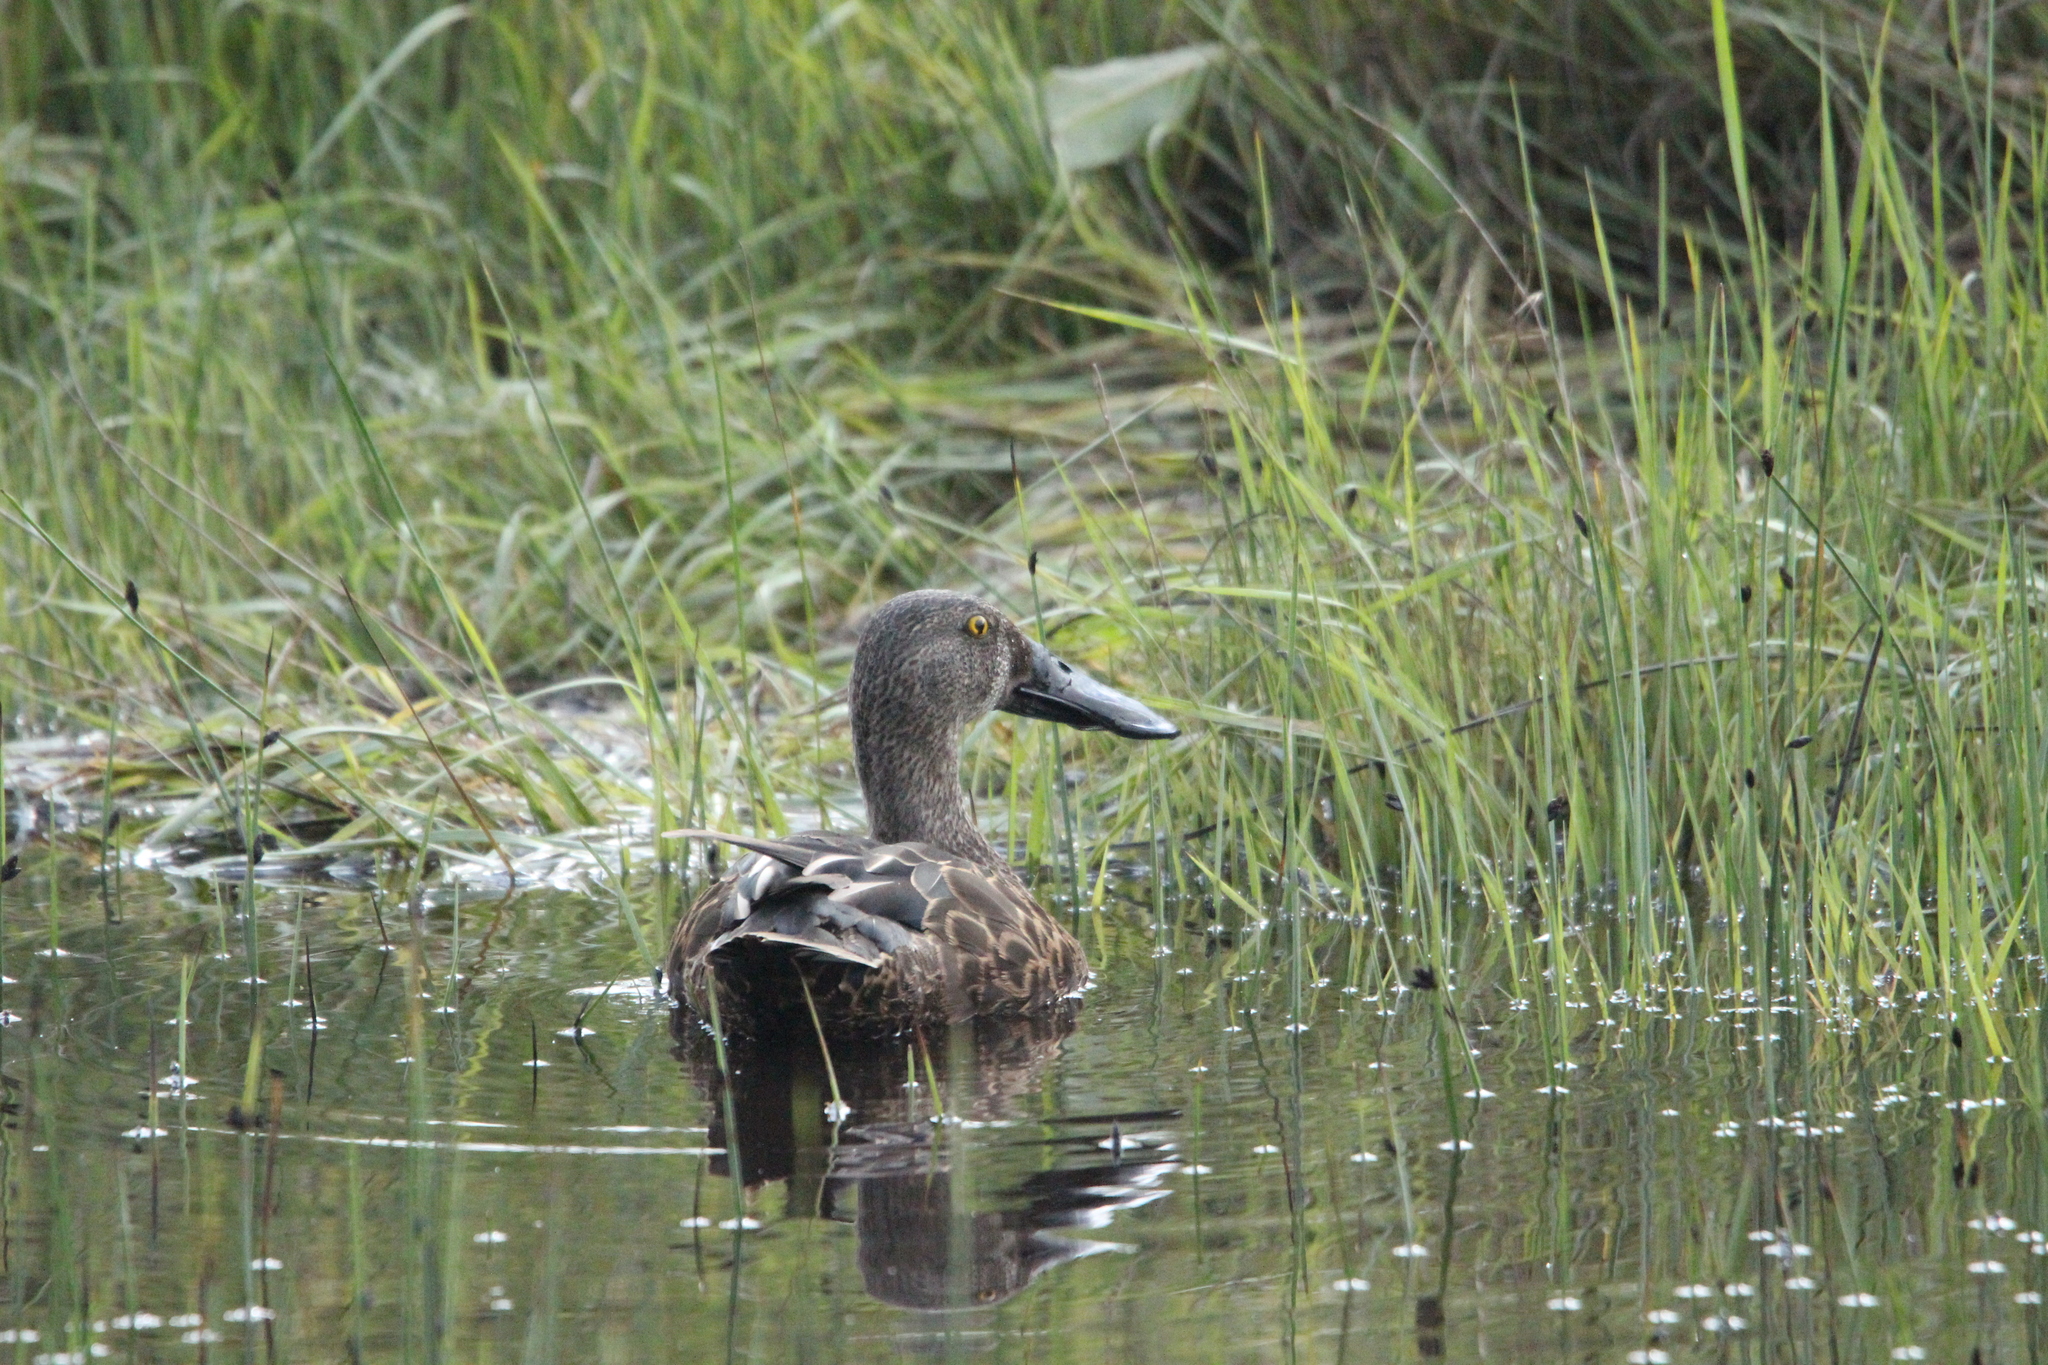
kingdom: Animalia
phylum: Chordata
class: Aves
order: Anseriformes
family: Anatidae
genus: Spatula
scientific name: Spatula rhynchotis
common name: Australian shoveler
